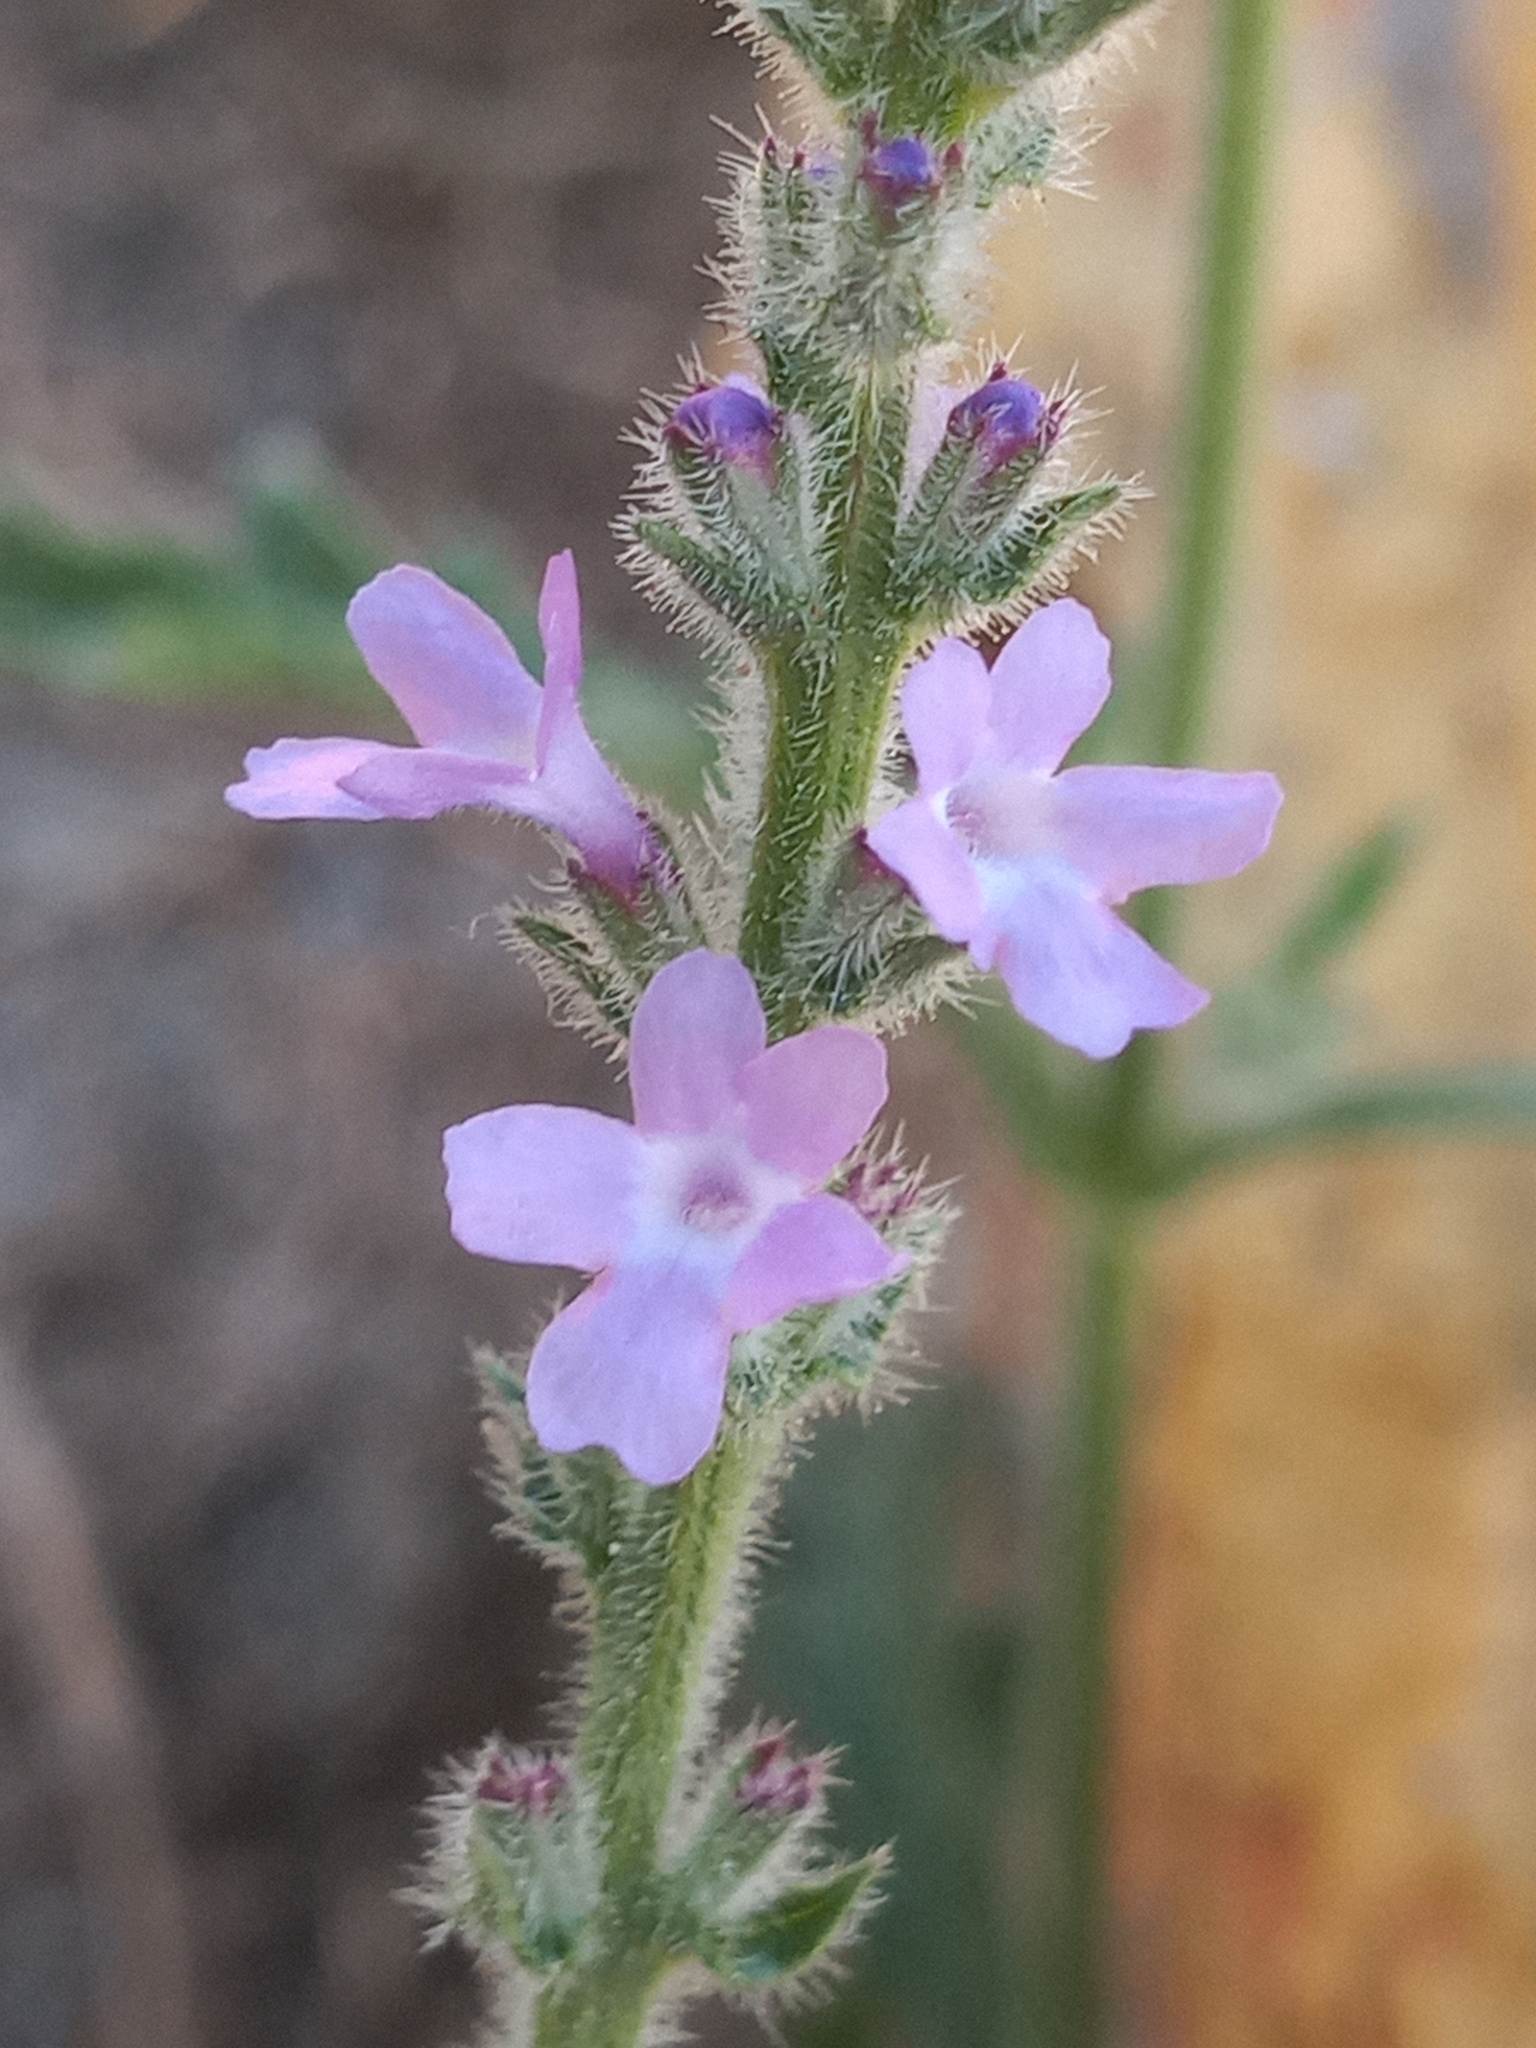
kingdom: Plantae
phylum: Tracheophyta
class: Magnoliopsida
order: Lamiales
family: Verbenaceae
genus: Verbena
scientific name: Verbena canescens
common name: Gray vervain
